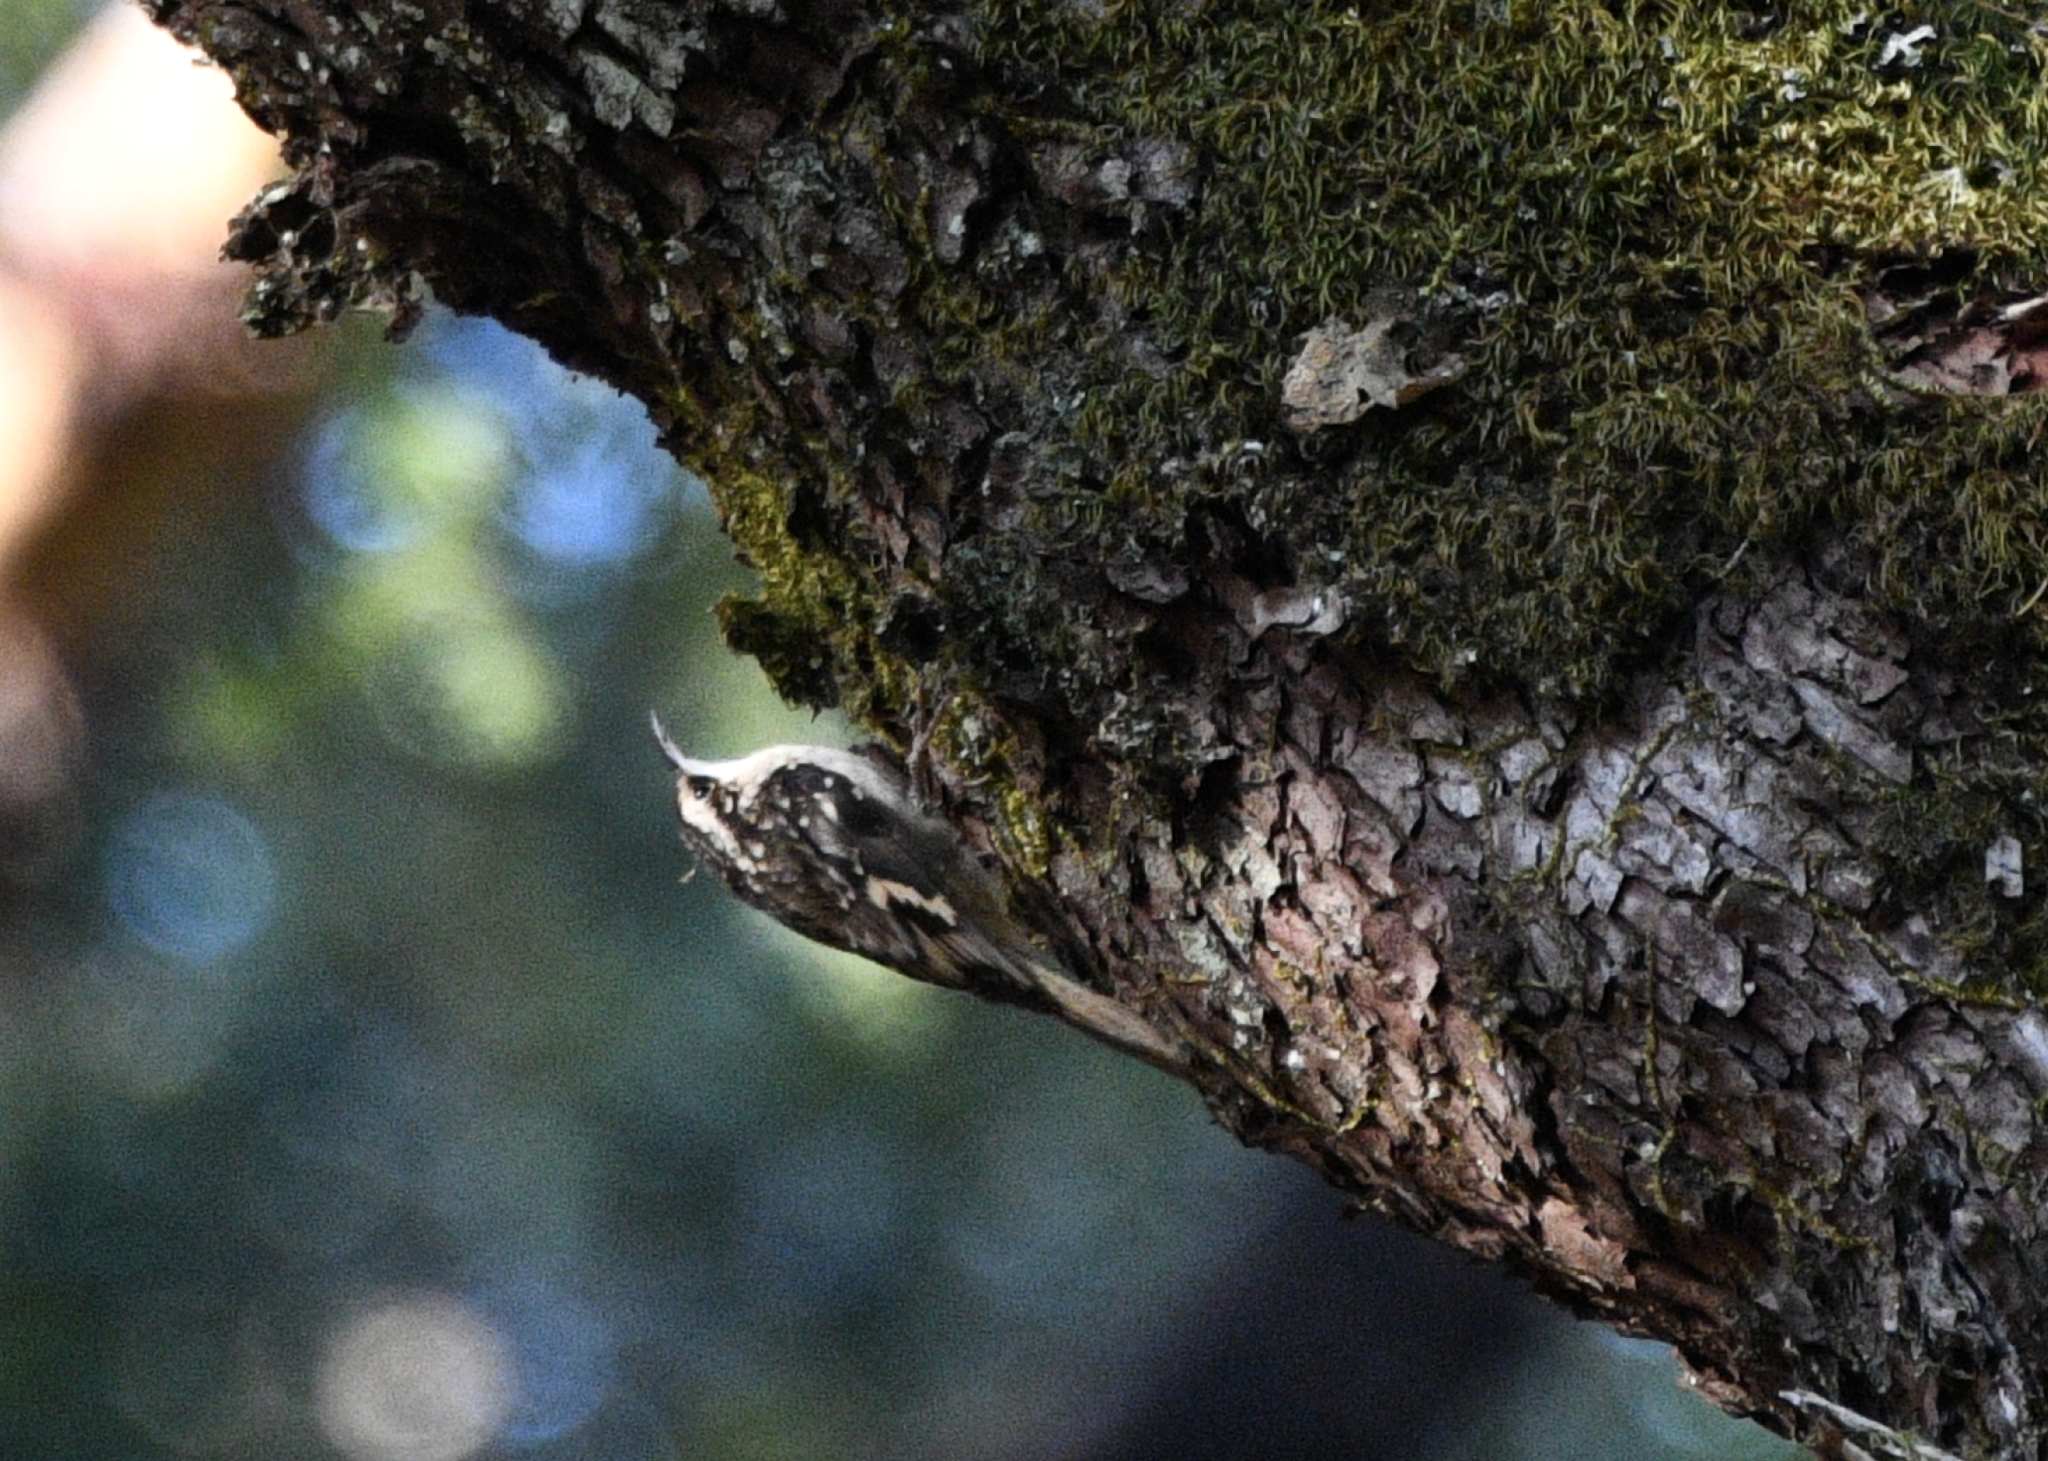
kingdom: Animalia
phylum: Chordata
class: Aves
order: Passeriformes
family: Certhiidae
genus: Certhia
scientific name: Certhia americana
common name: Brown creeper
